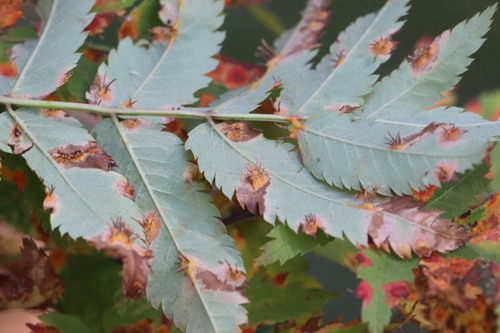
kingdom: Fungi
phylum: Basidiomycota
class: Pucciniomycetes
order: Pucciniales
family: Gymnosporangiaceae
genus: Gymnosporangium
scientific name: Gymnosporangium cornutum
